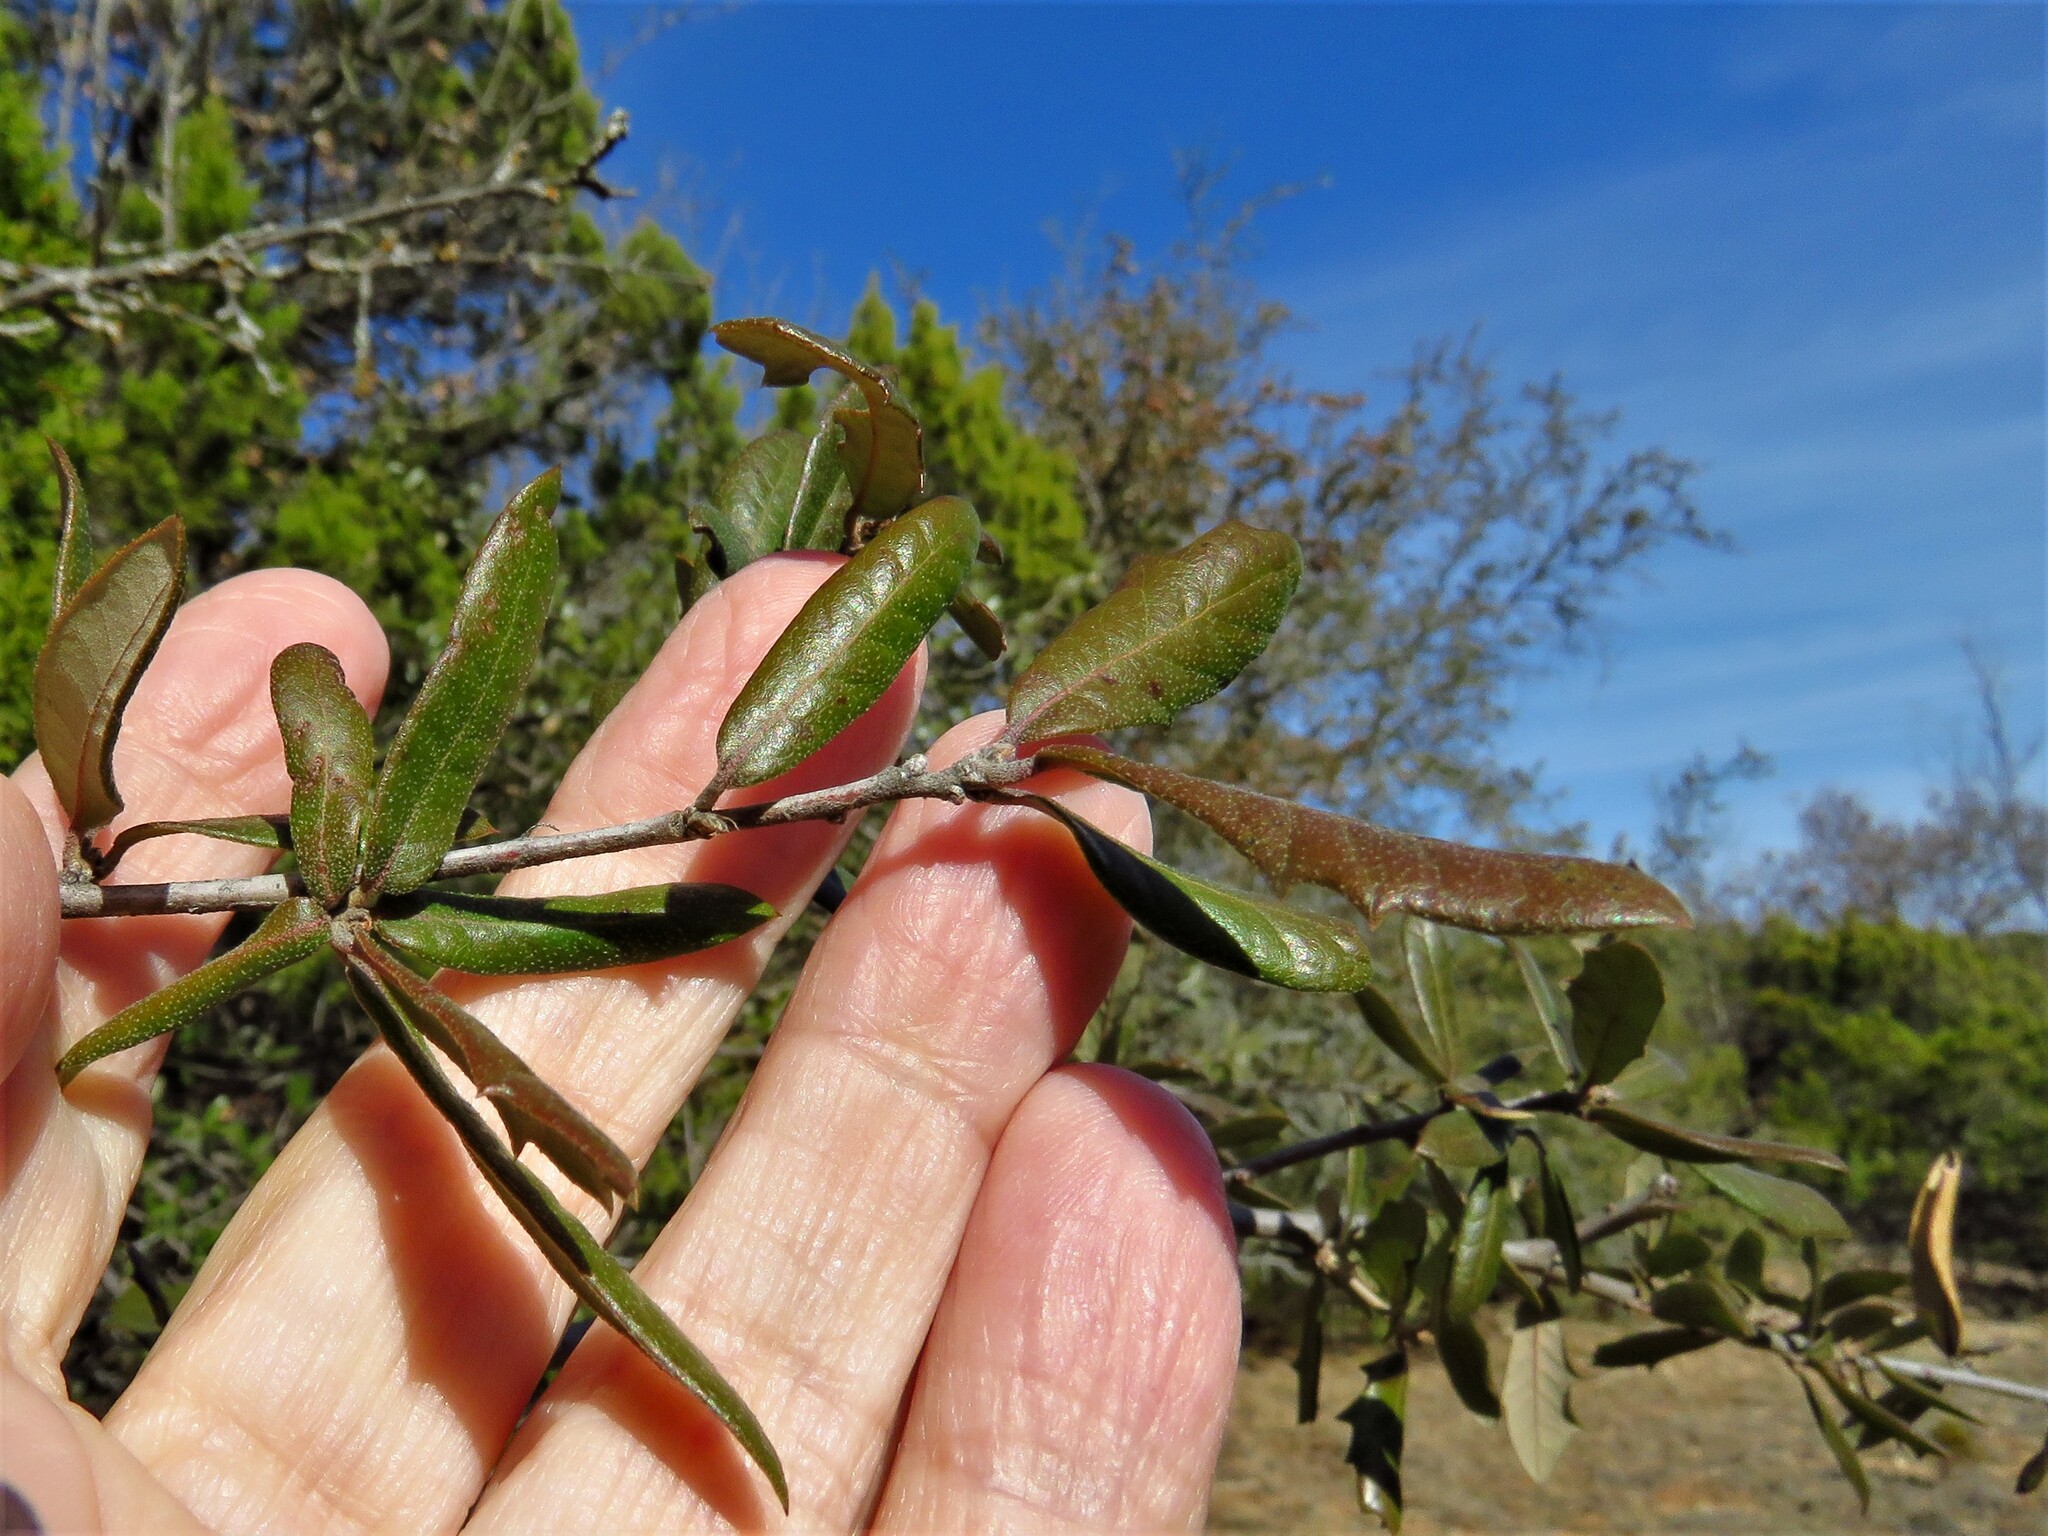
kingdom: Plantae
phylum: Tracheophyta
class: Magnoliopsida
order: Fagales
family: Fagaceae
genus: Quercus
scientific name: Quercus fusiformis
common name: Texas live oak
